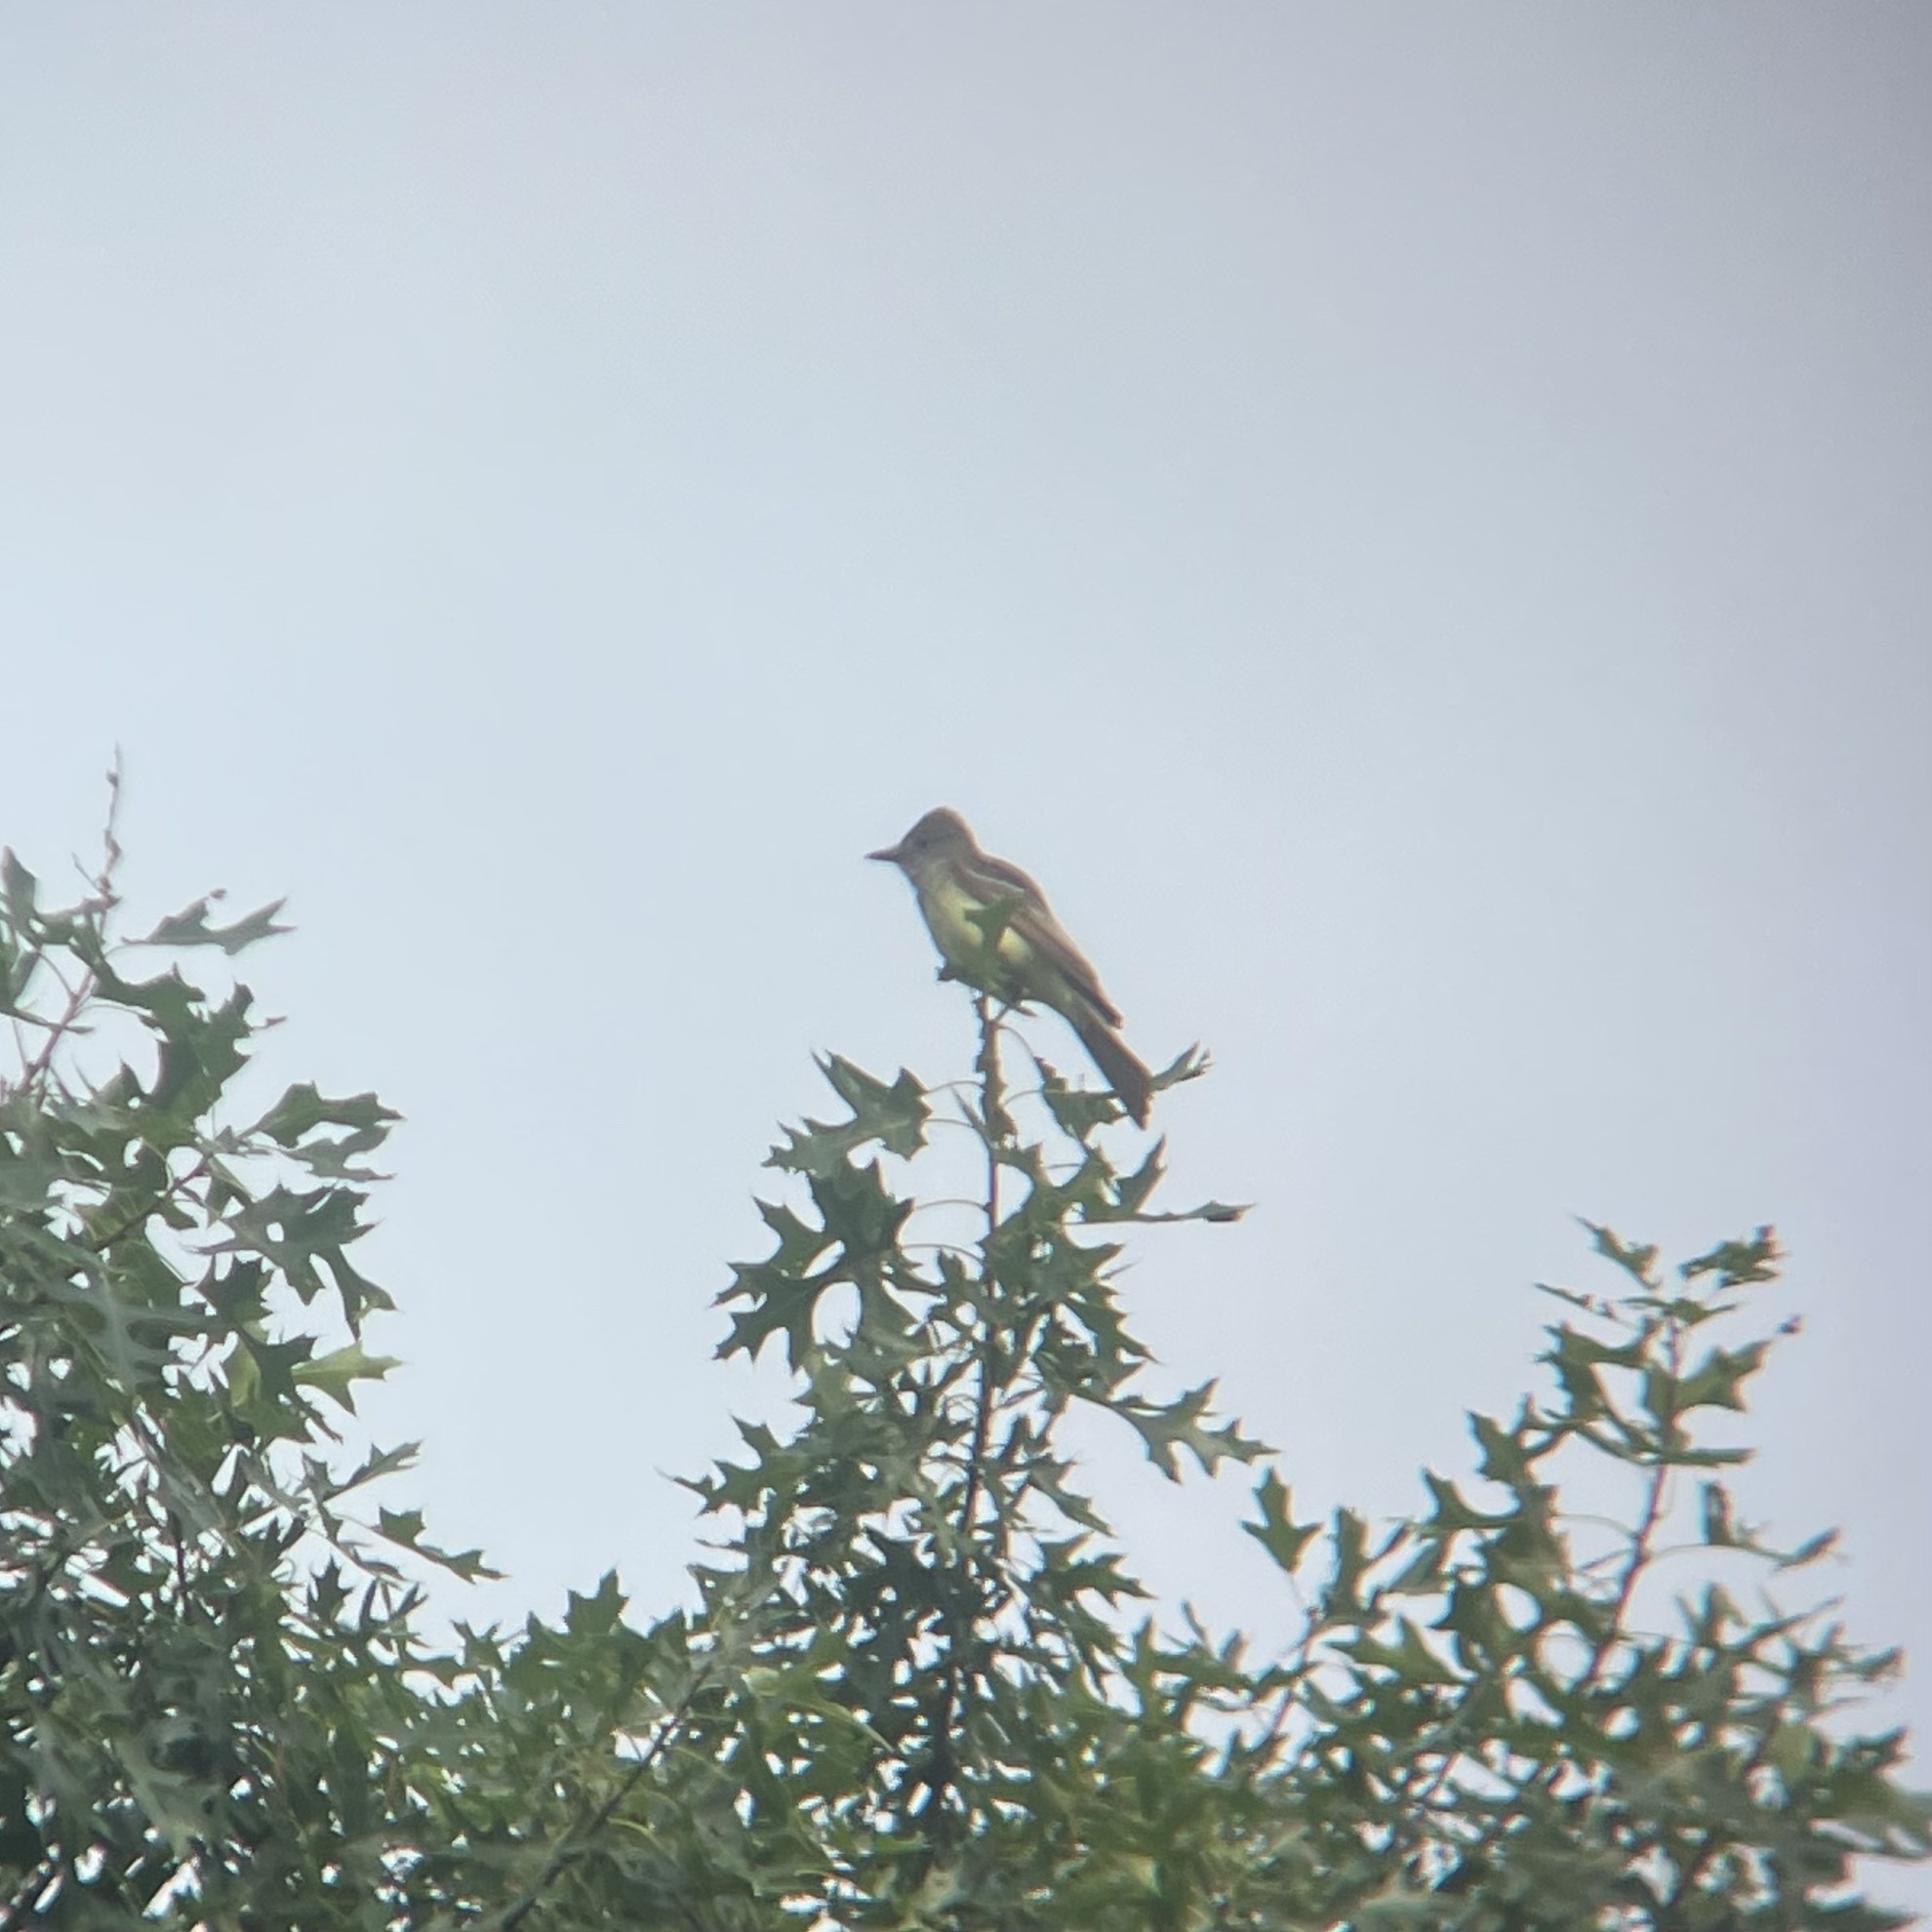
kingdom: Animalia
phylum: Chordata
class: Aves
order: Passeriformes
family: Tyrannidae
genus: Myiarchus
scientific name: Myiarchus crinitus
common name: Great crested flycatcher
